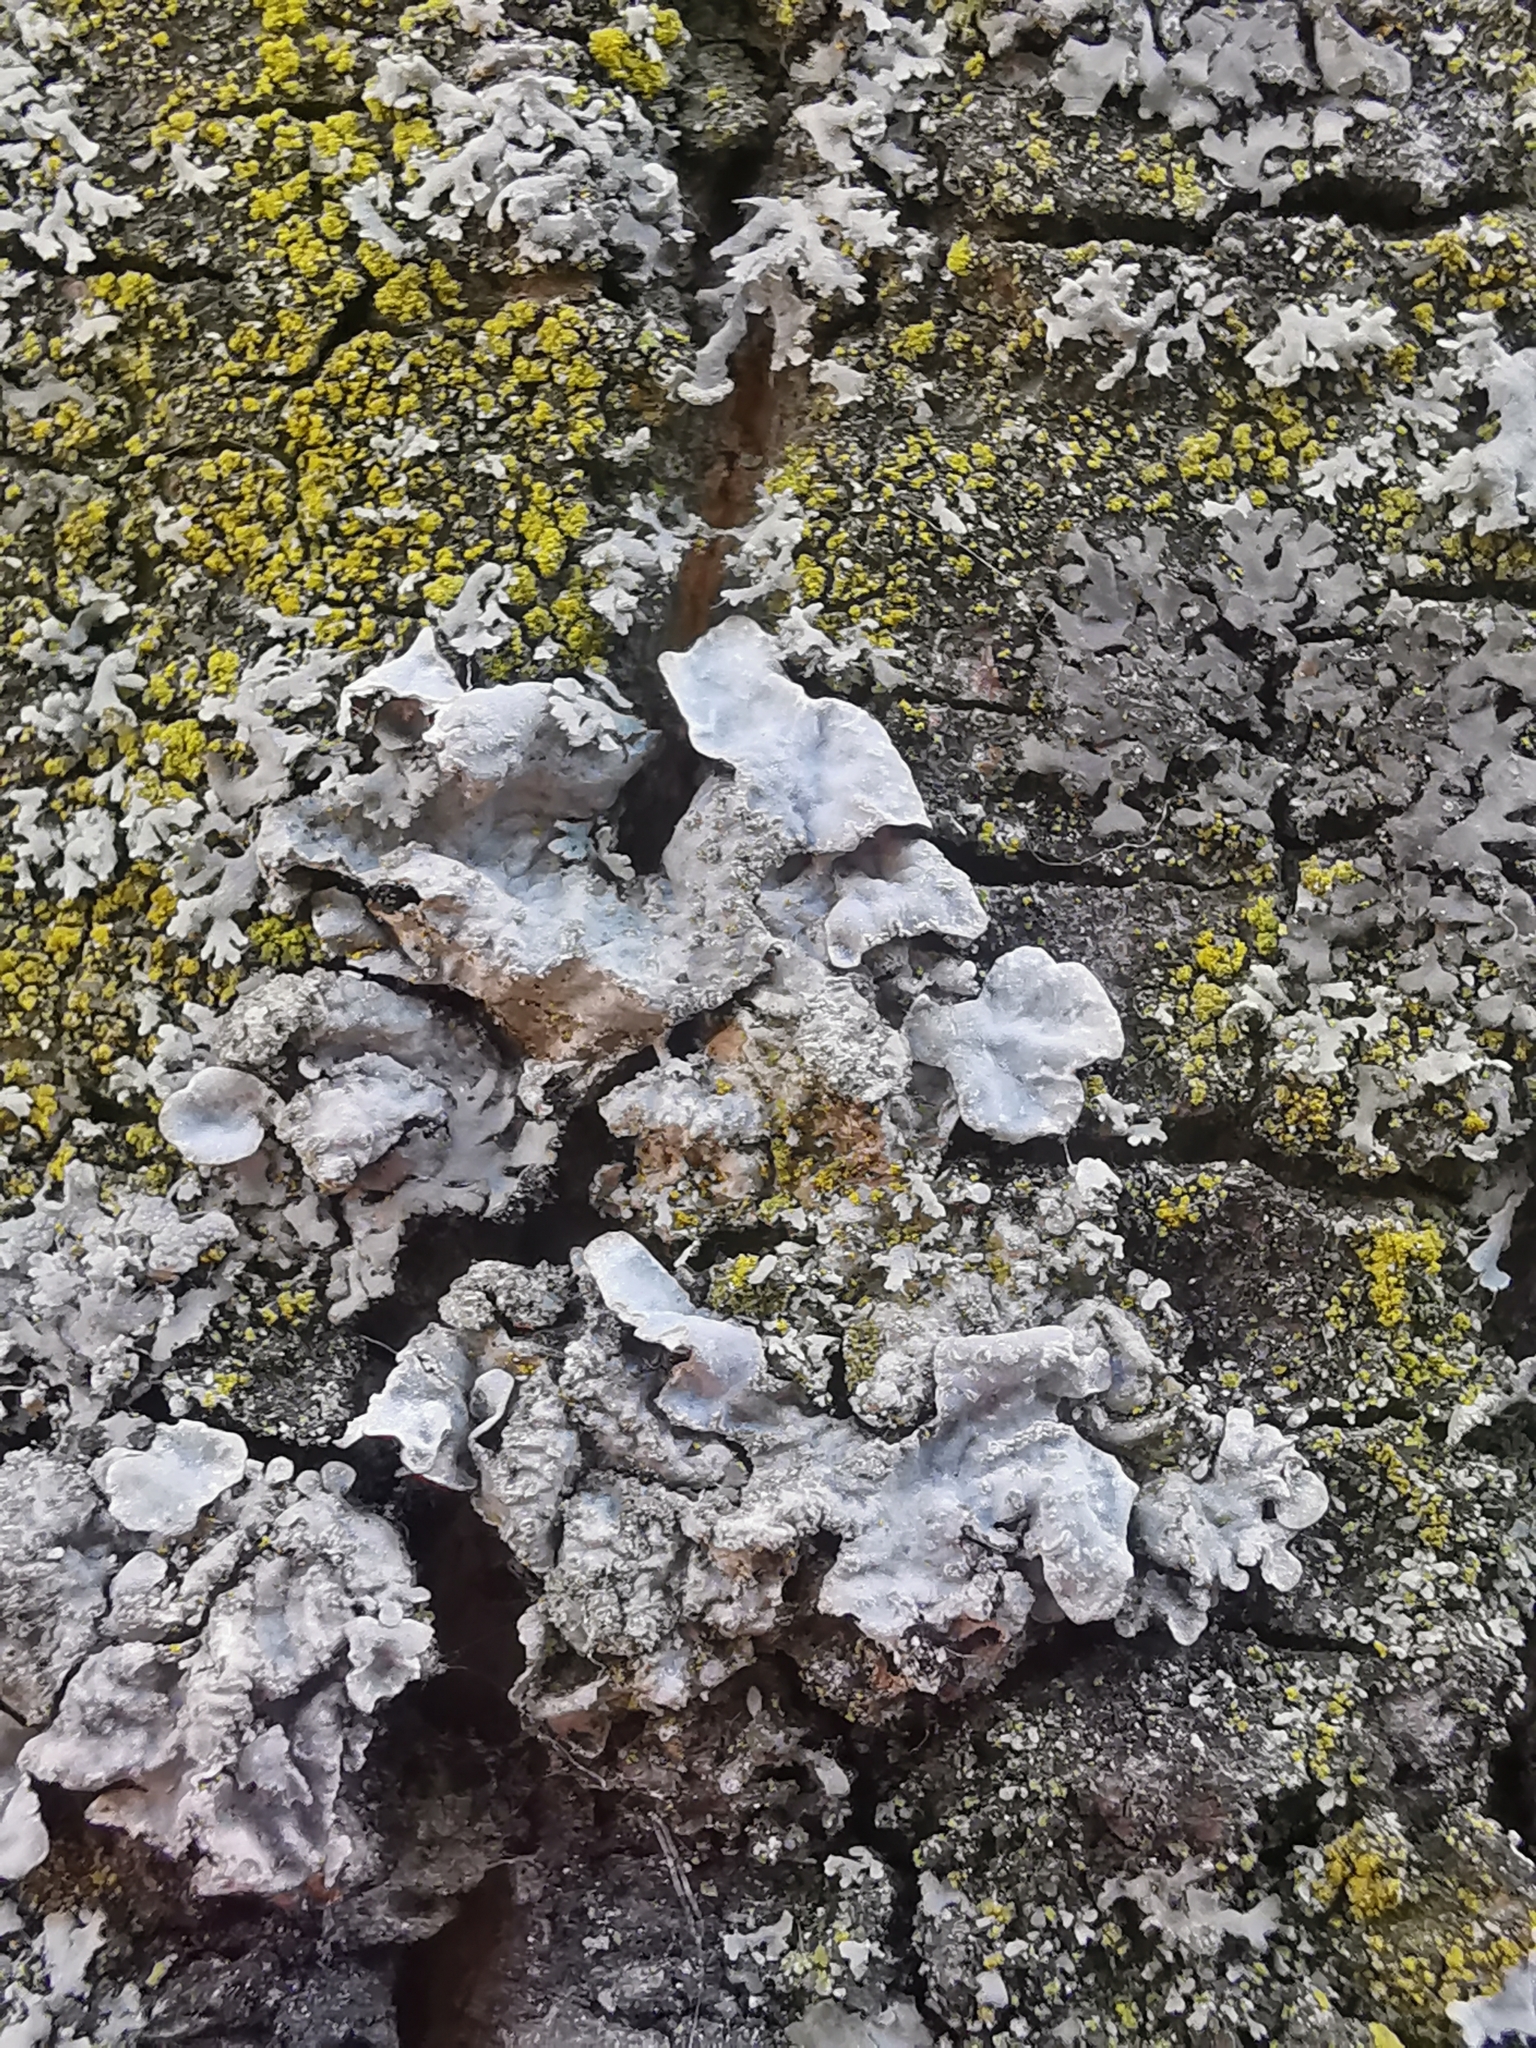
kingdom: Fungi
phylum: Ascomycota
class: Lecanoromycetes
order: Lecanorales
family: Parmeliaceae
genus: Parmelia
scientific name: Parmelia sulcata
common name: Netted shield lichen
